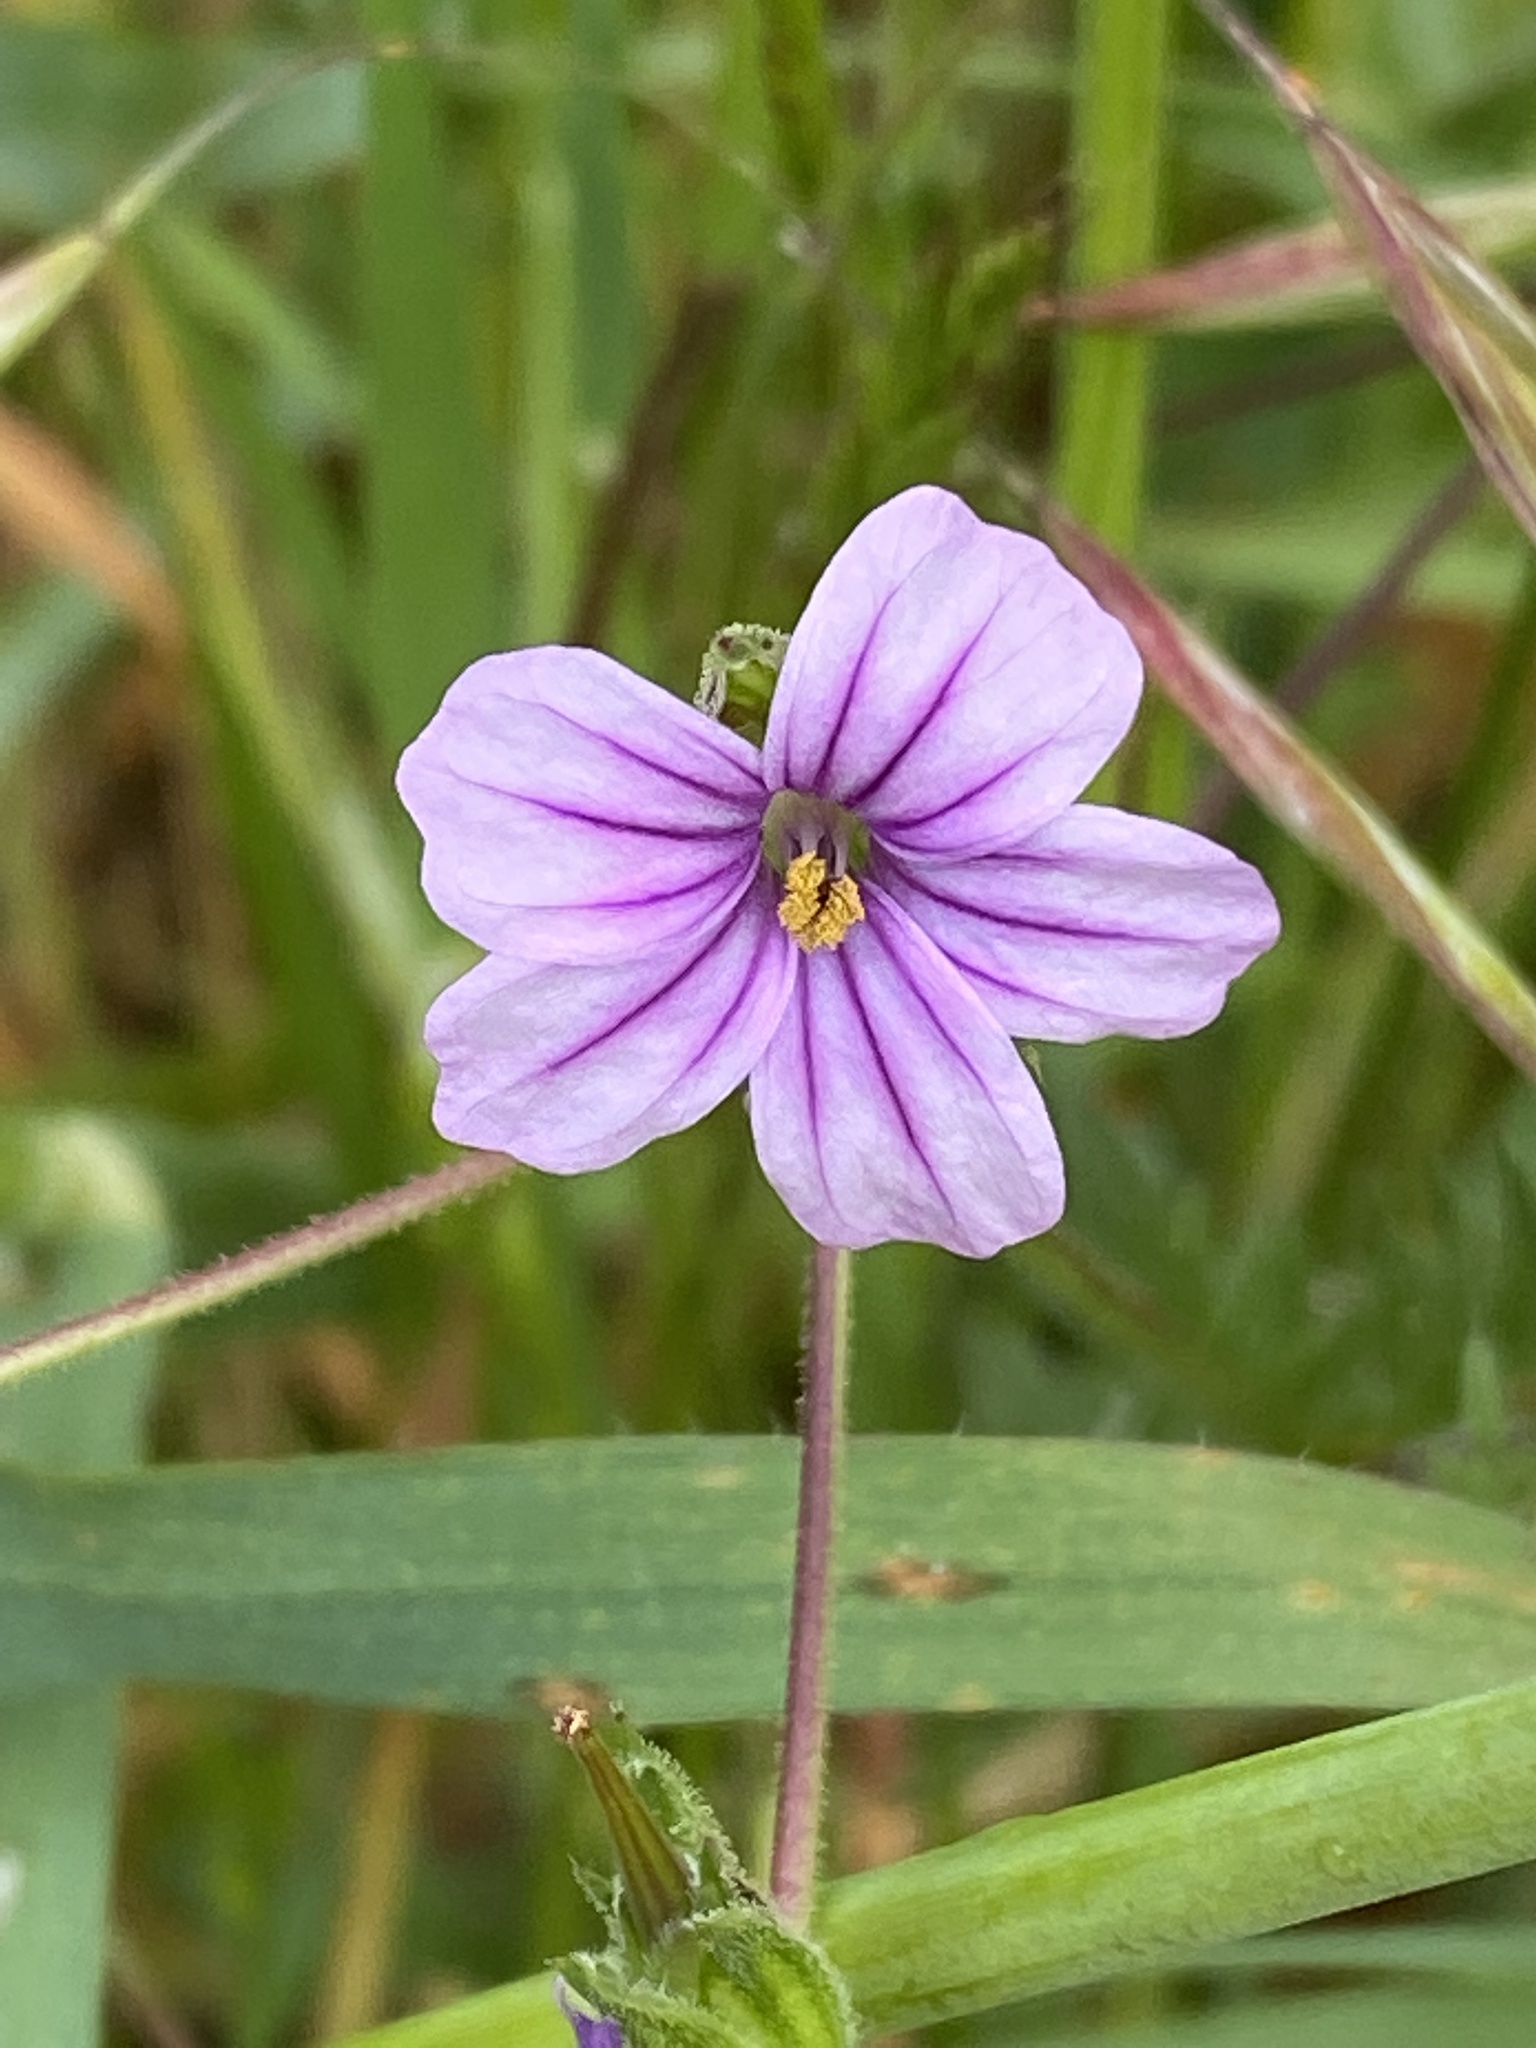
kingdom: Plantae
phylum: Tracheophyta
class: Magnoliopsida
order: Geraniales
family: Geraniaceae
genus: Erodium
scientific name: Erodium botrys
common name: Mediterranean stork's-bill
